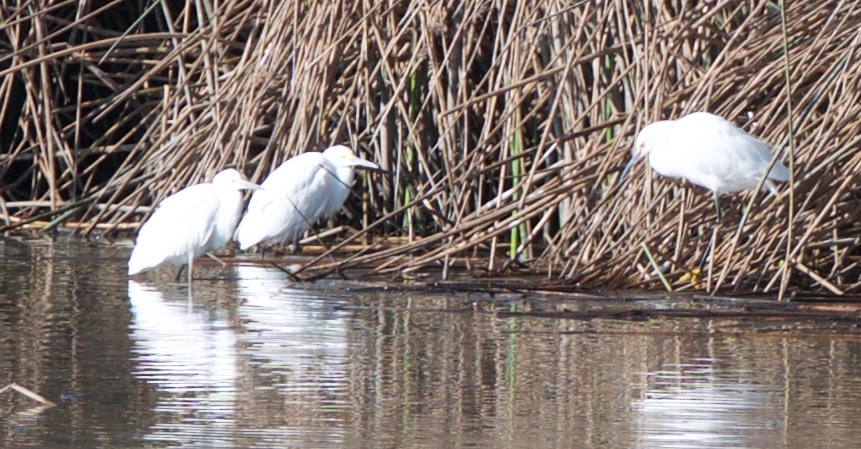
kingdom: Animalia
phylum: Chordata
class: Aves
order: Pelecaniformes
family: Ardeidae
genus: Egretta
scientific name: Egretta thula
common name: Snowy egret
